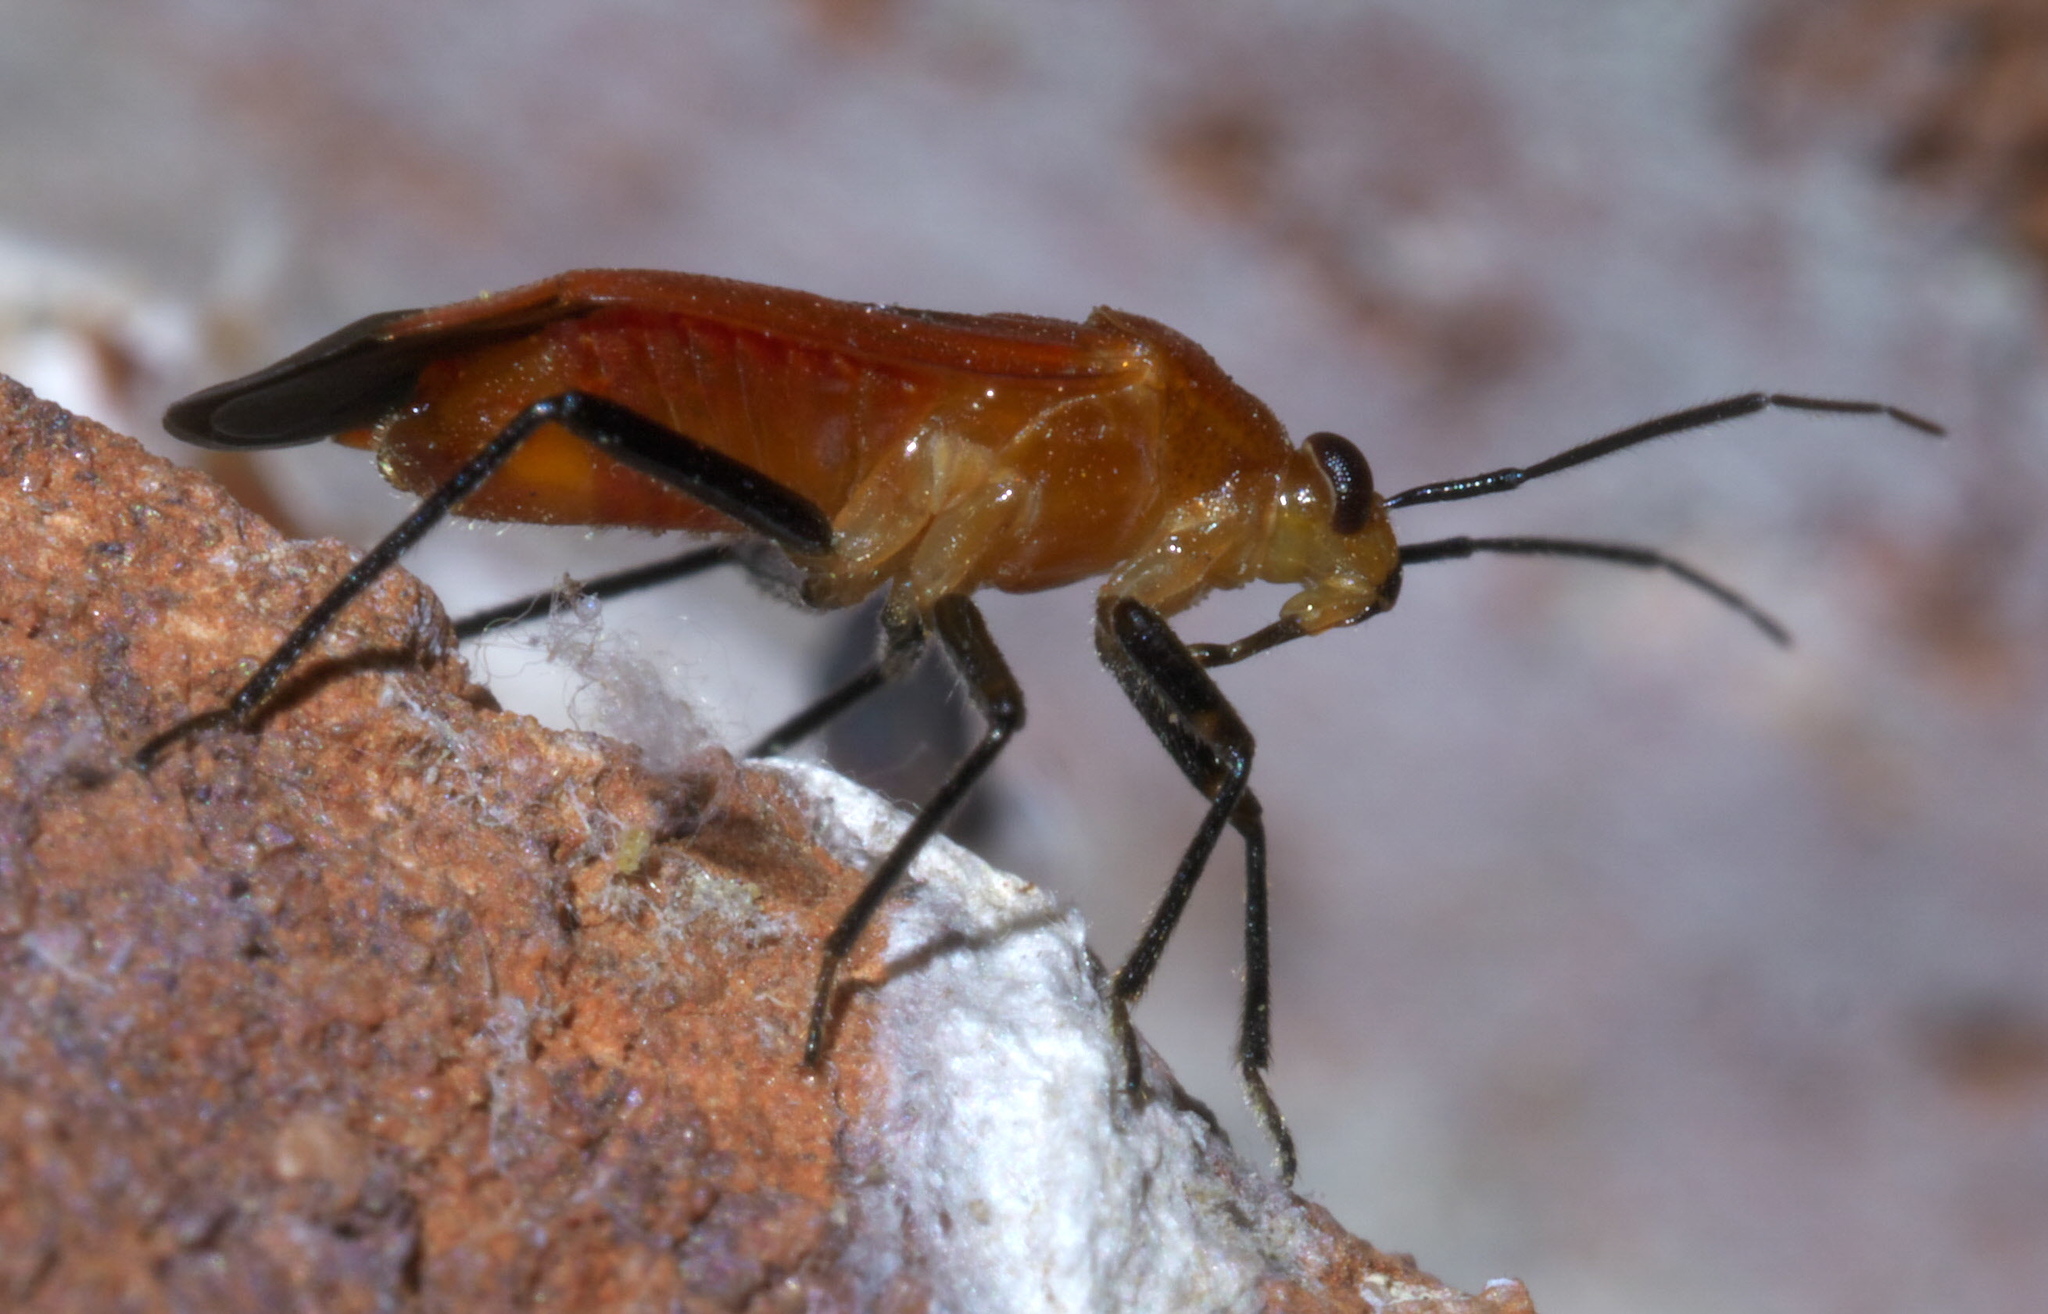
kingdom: Animalia
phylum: Arthropoda
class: Insecta
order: Hemiptera
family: Miridae
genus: Tropidosteptes
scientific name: Tropidosteptes cardinalis
